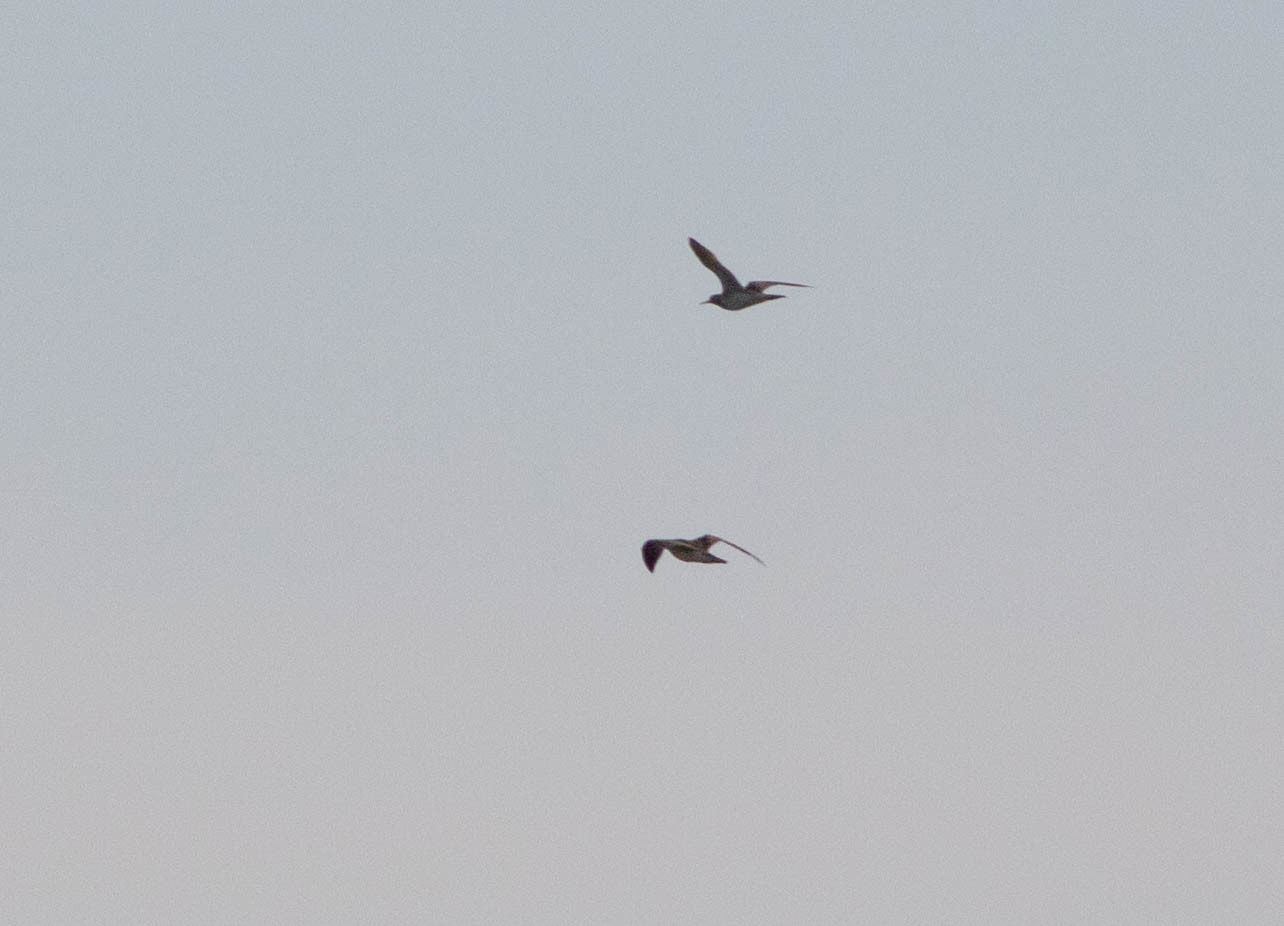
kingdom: Animalia
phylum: Chordata
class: Aves
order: Charadriiformes
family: Scolopacidae
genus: Bartramia
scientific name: Bartramia longicauda
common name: Upland sandpiper
